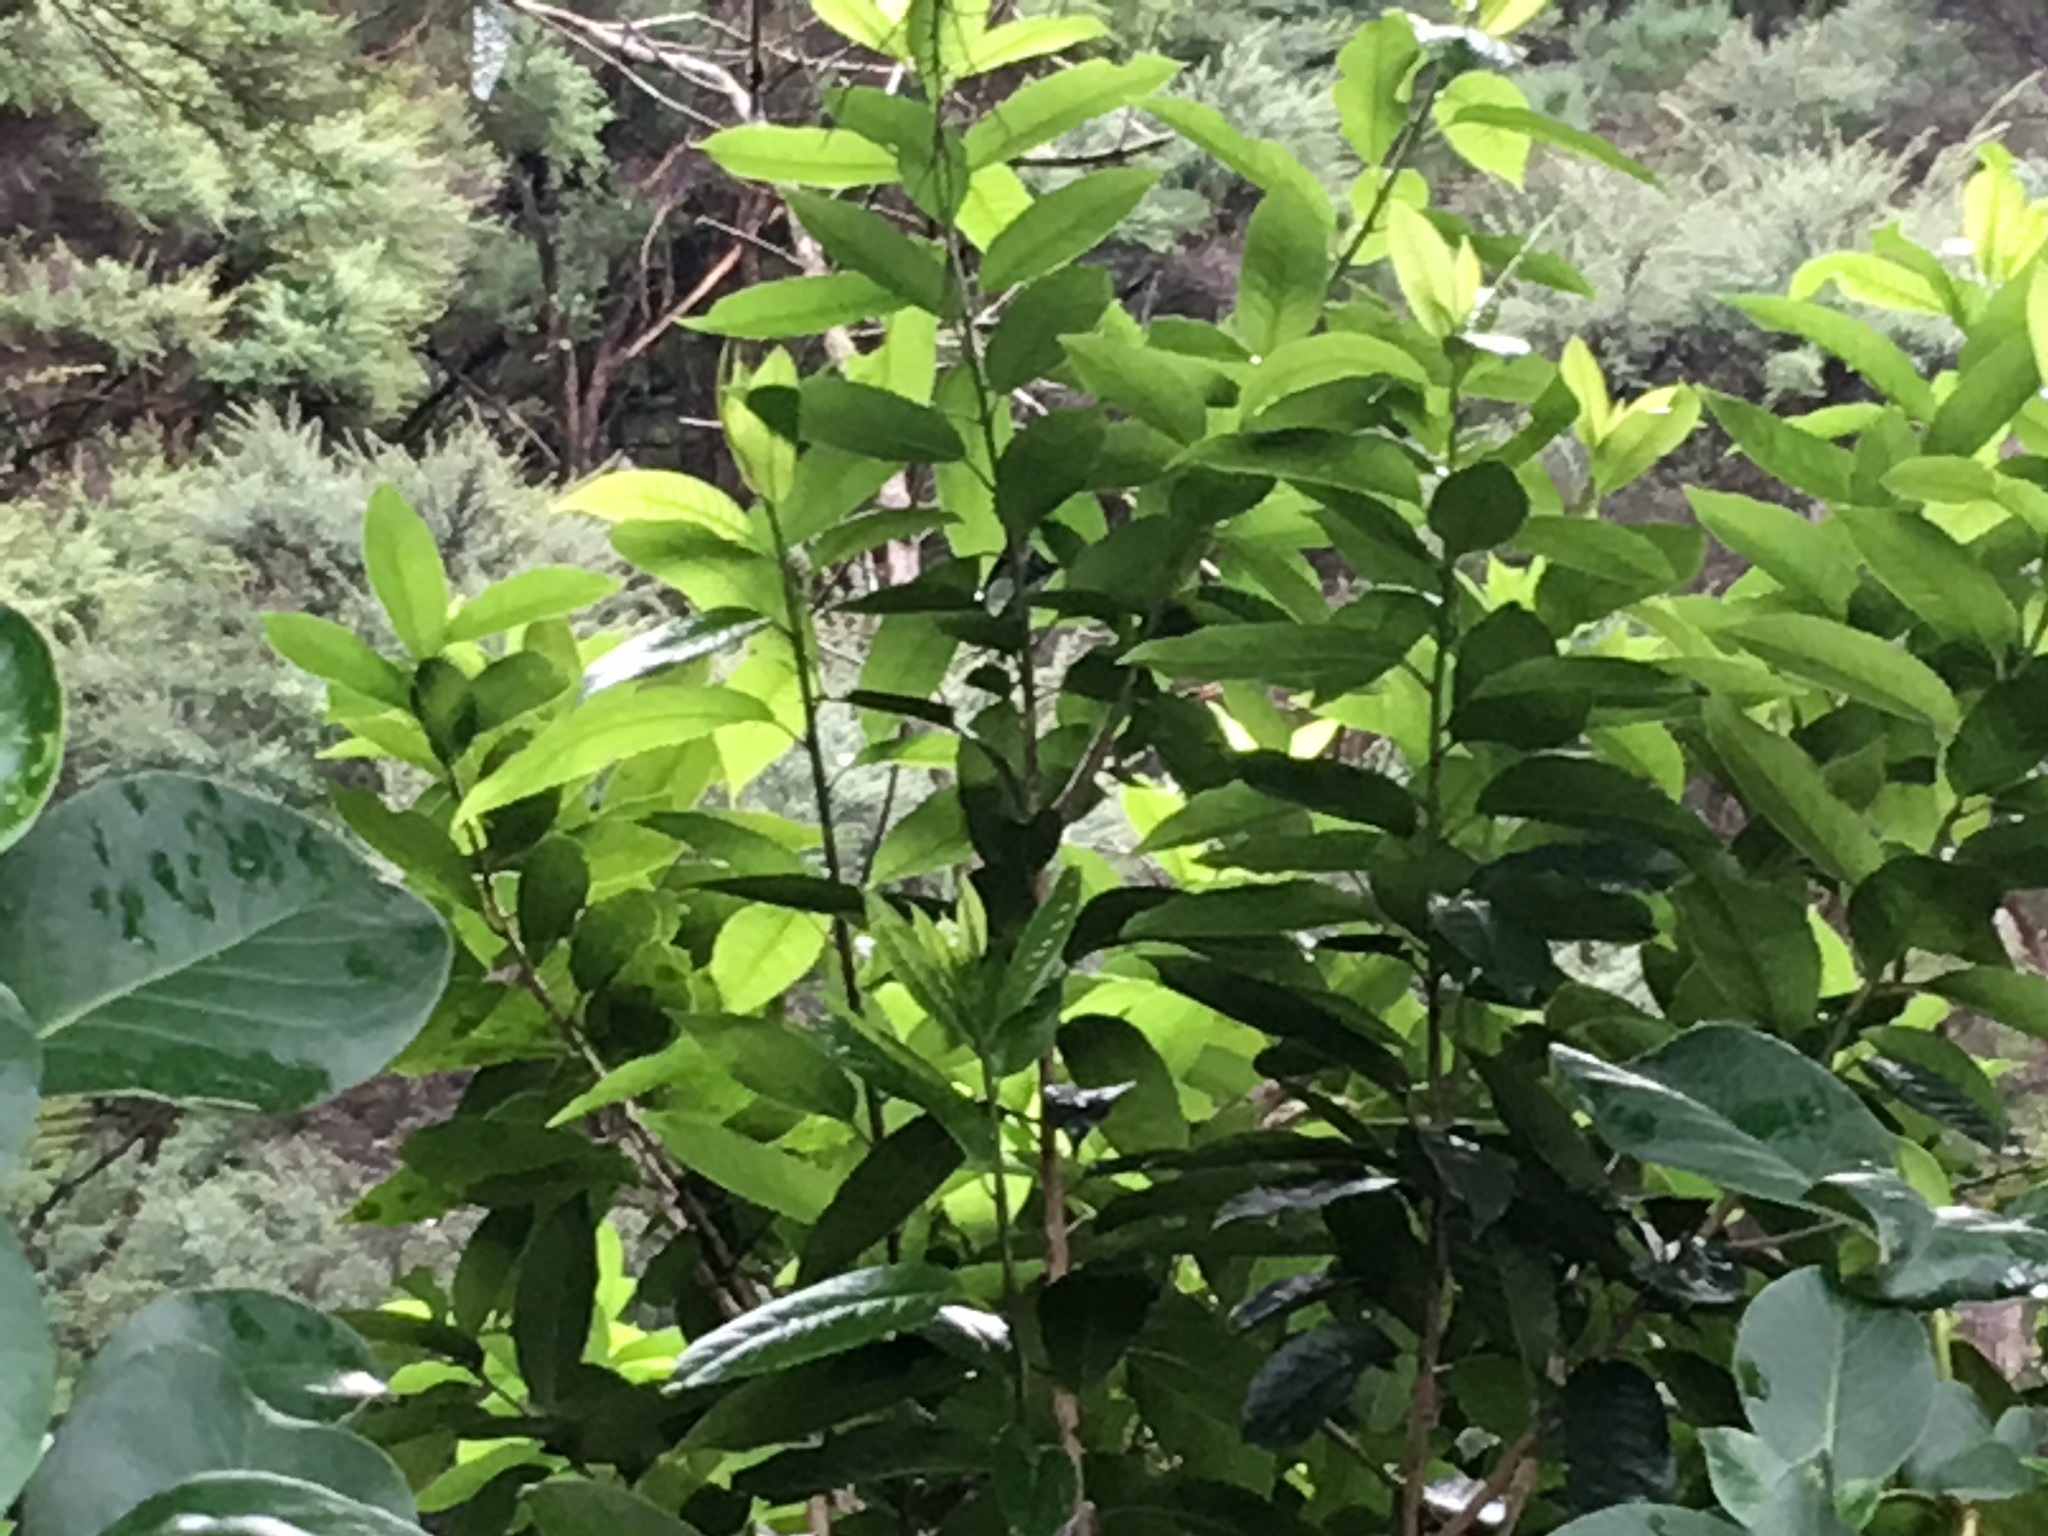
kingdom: Plantae
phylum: Tracheophyta
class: Magnoliopsida
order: Malpighiales
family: Violaceae
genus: Melicytus
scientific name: Melicytus ramiflorus
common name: Mahoe
